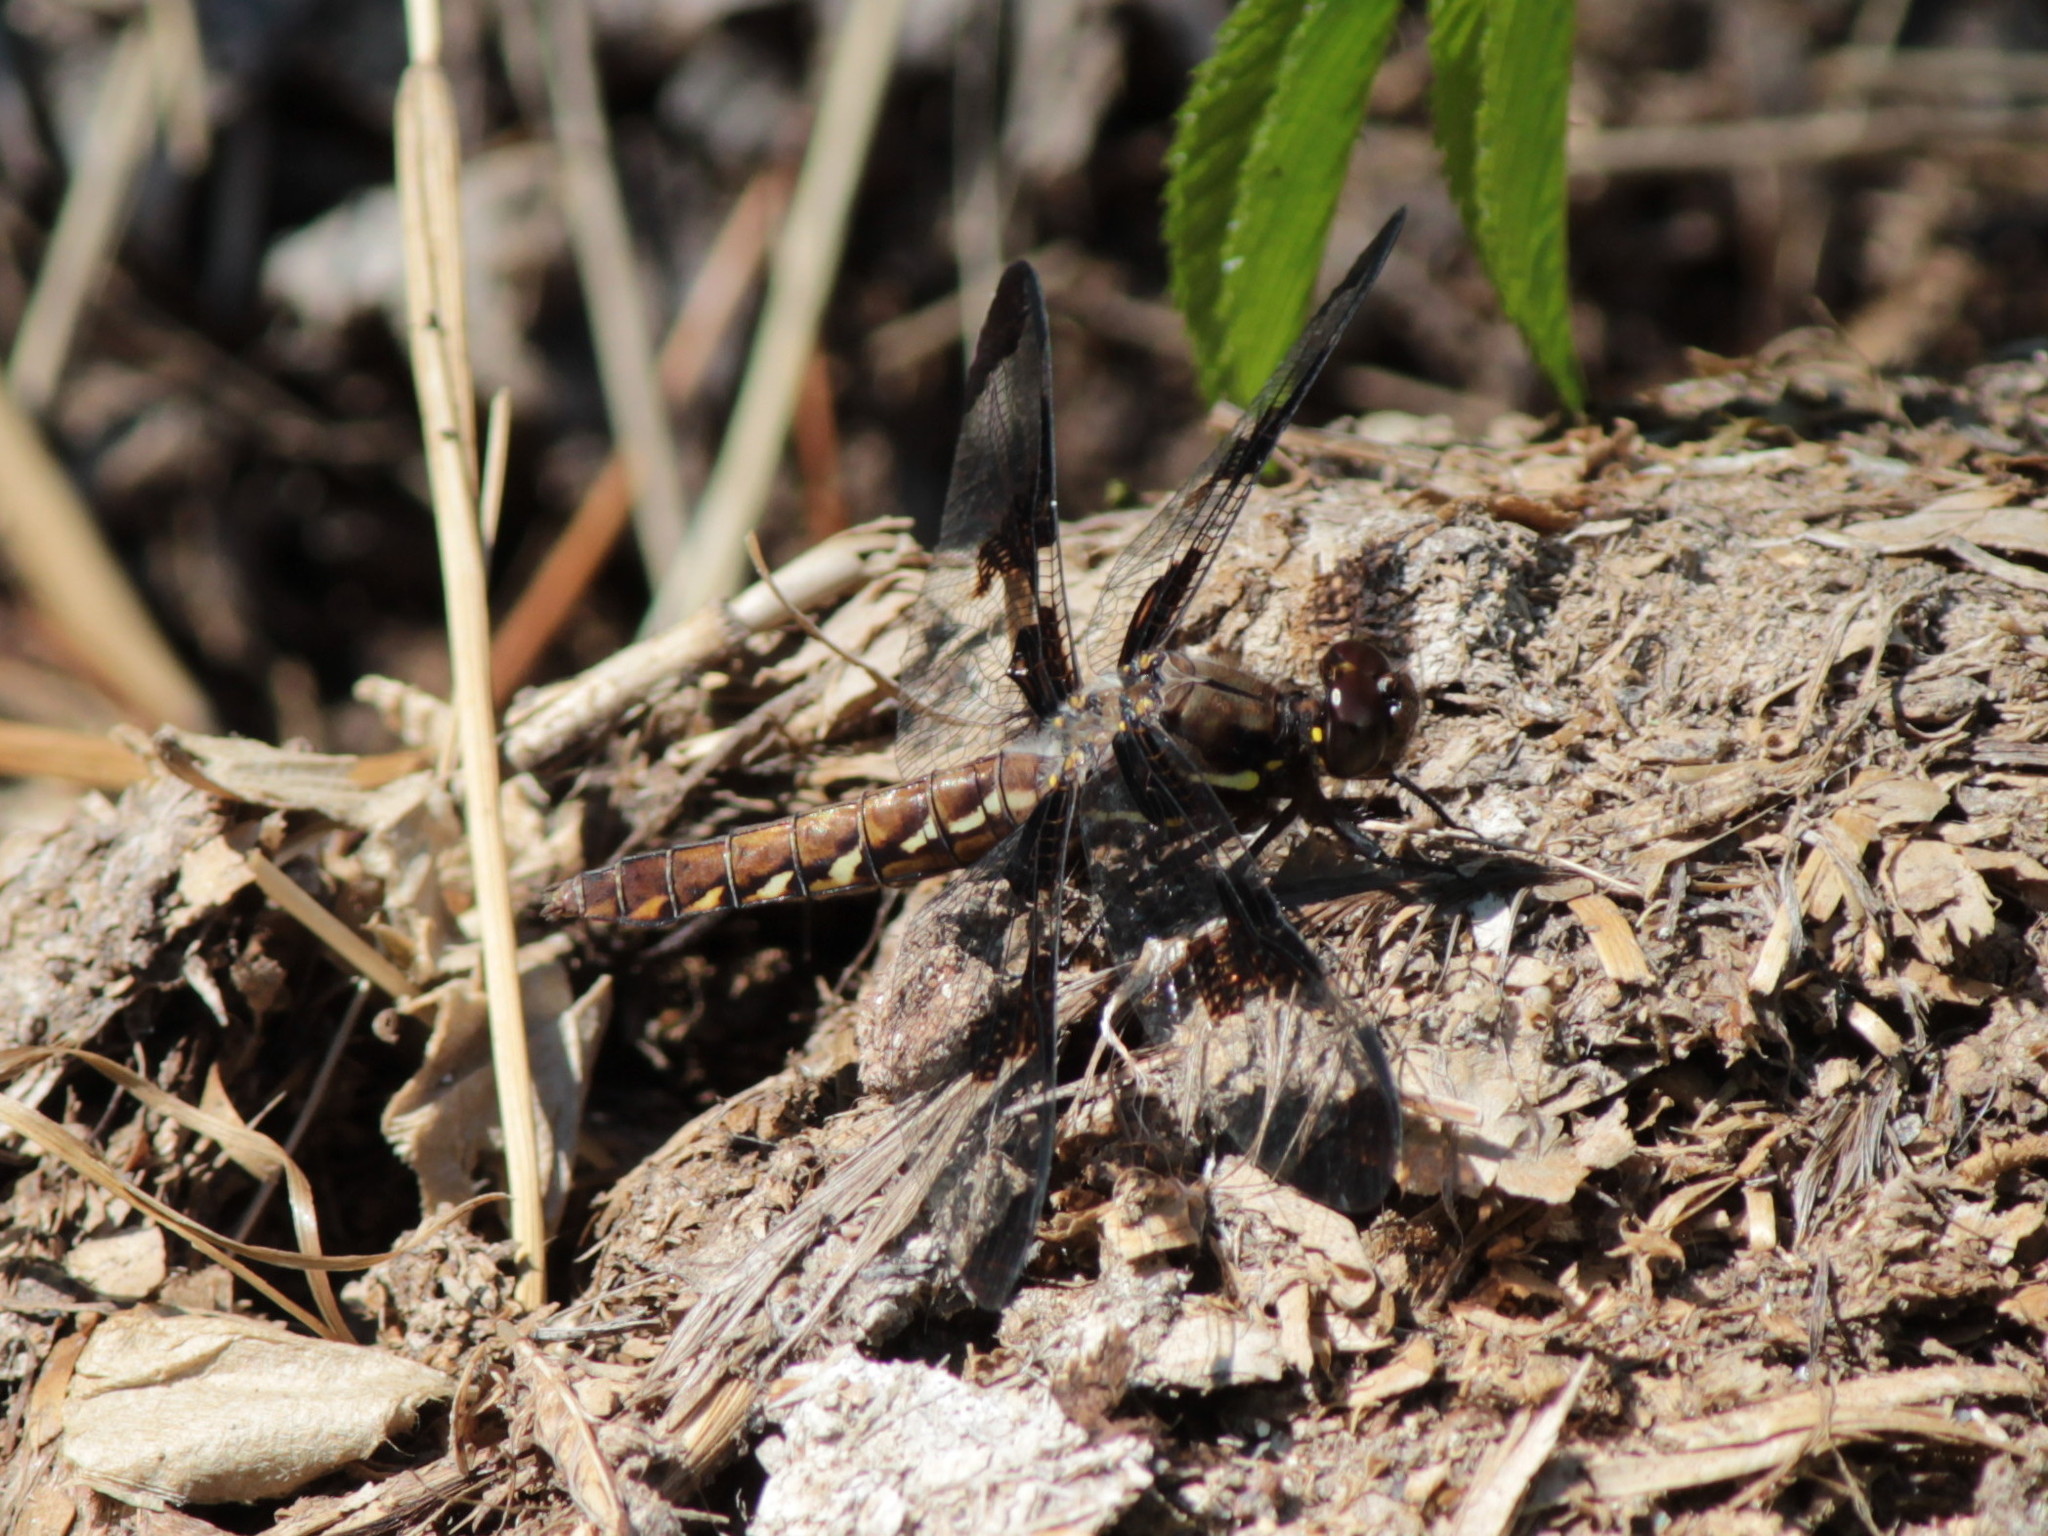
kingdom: Animalia
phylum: Arthropoda
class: Insecta
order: Odonata
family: Libellulidae
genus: Plathemis
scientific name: Plathemis lydia
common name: Common whitetail
